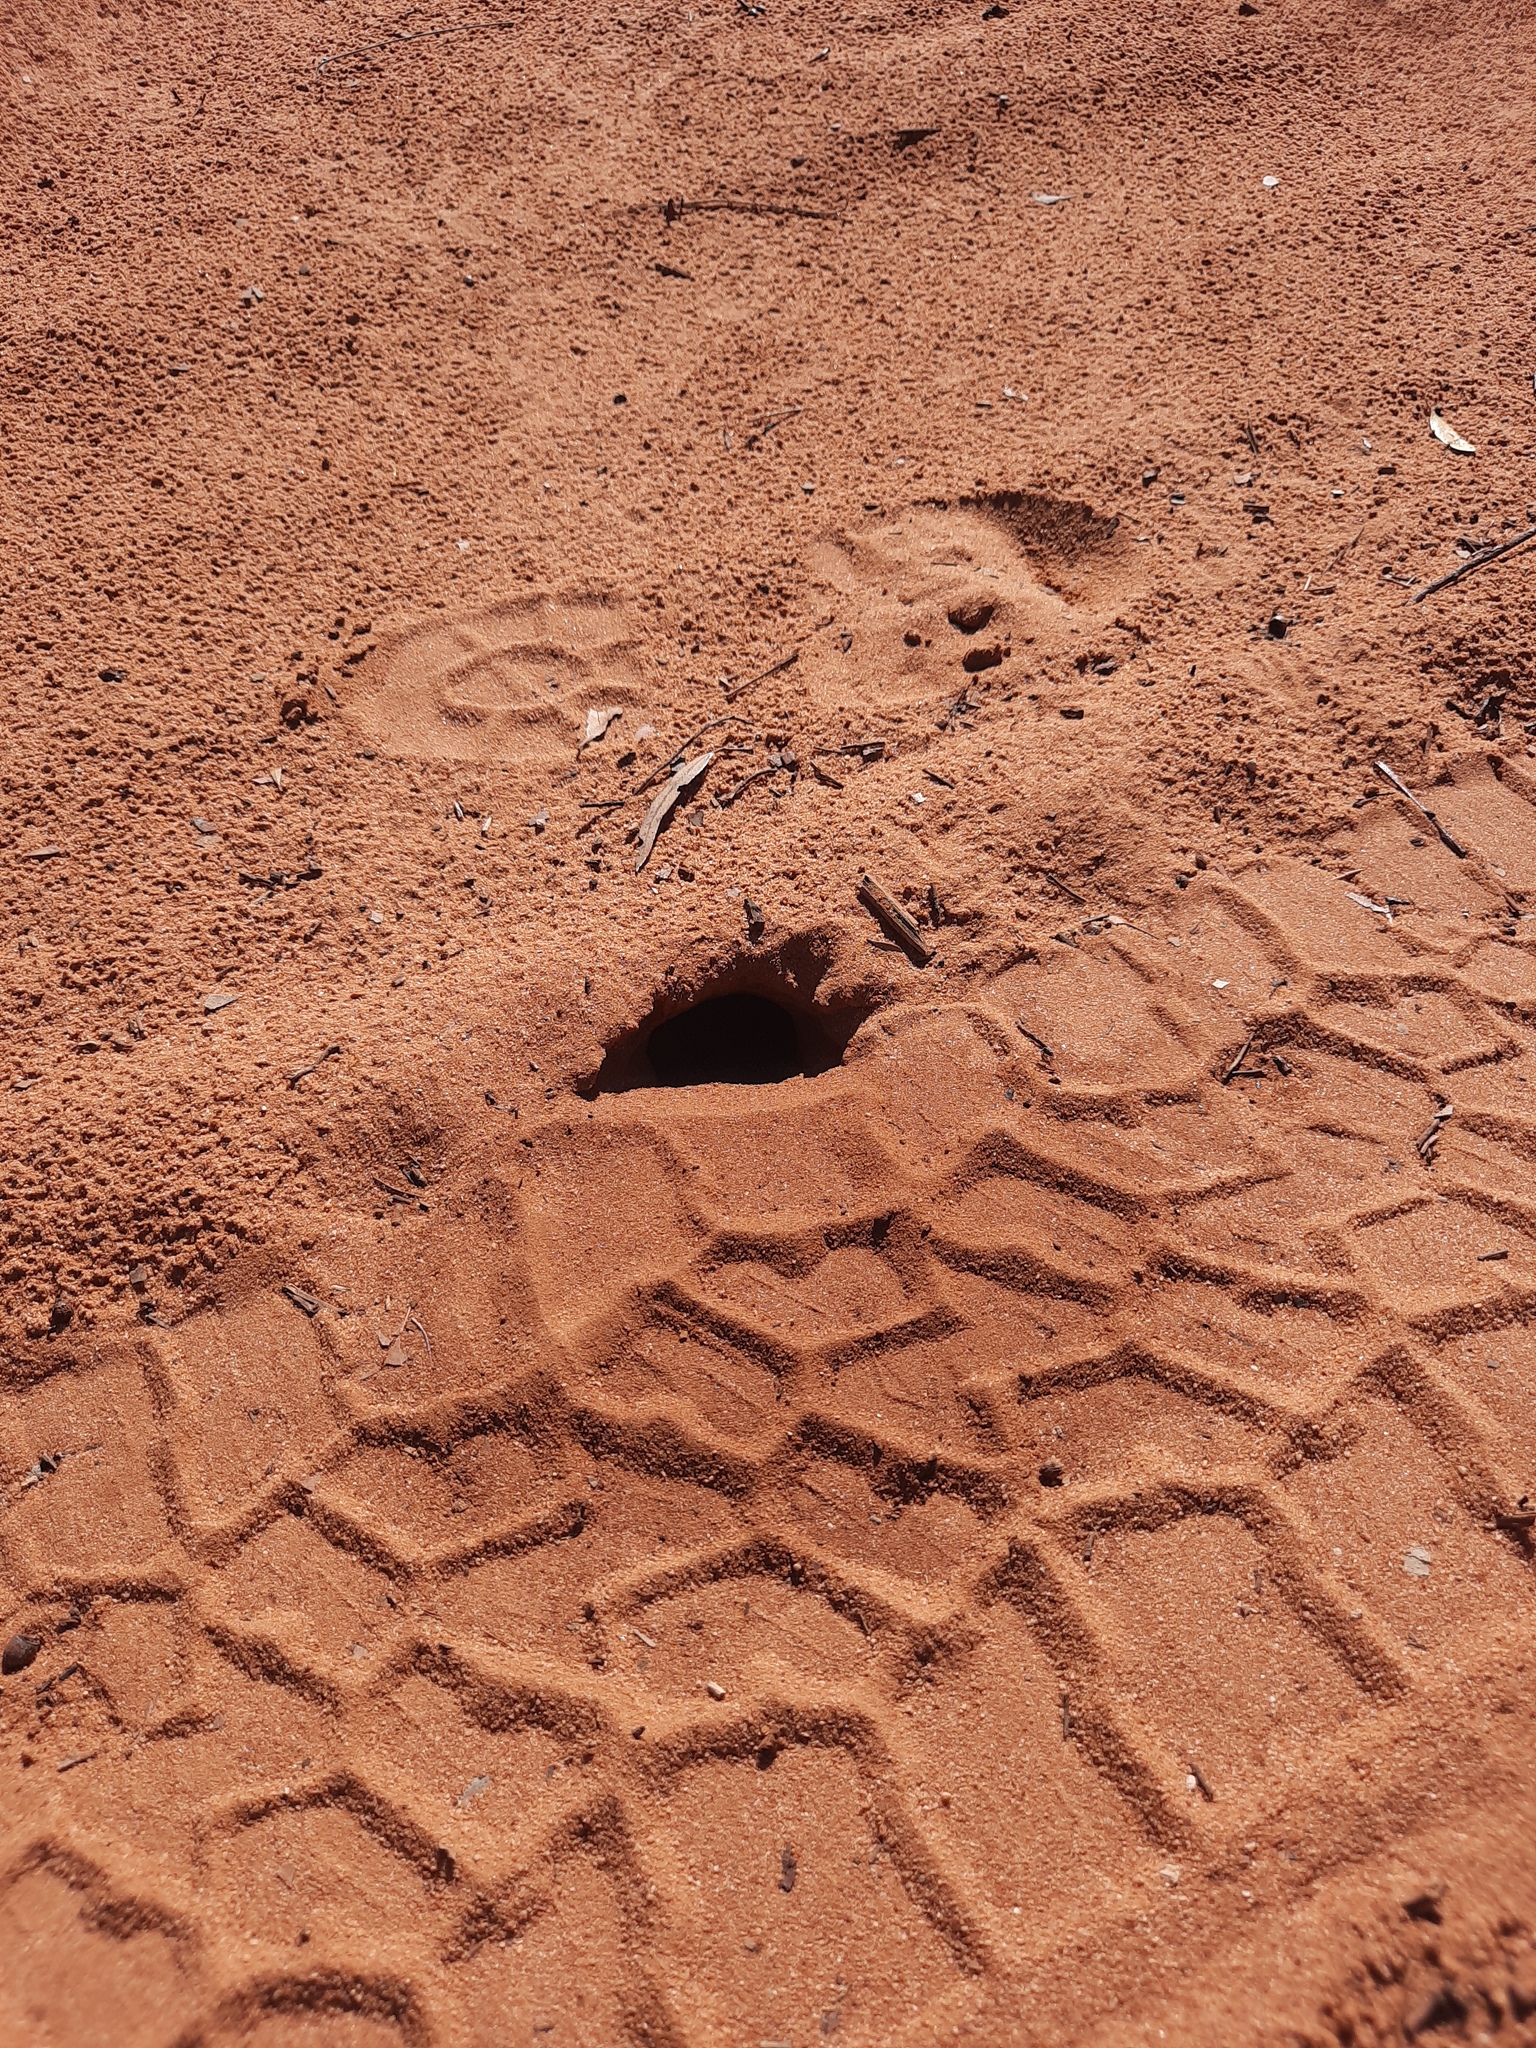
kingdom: Animalia
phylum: Chordata
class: Squamata
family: Agamidae
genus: Diporiphora
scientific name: Diporiphora nobbi
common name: Nobbi
